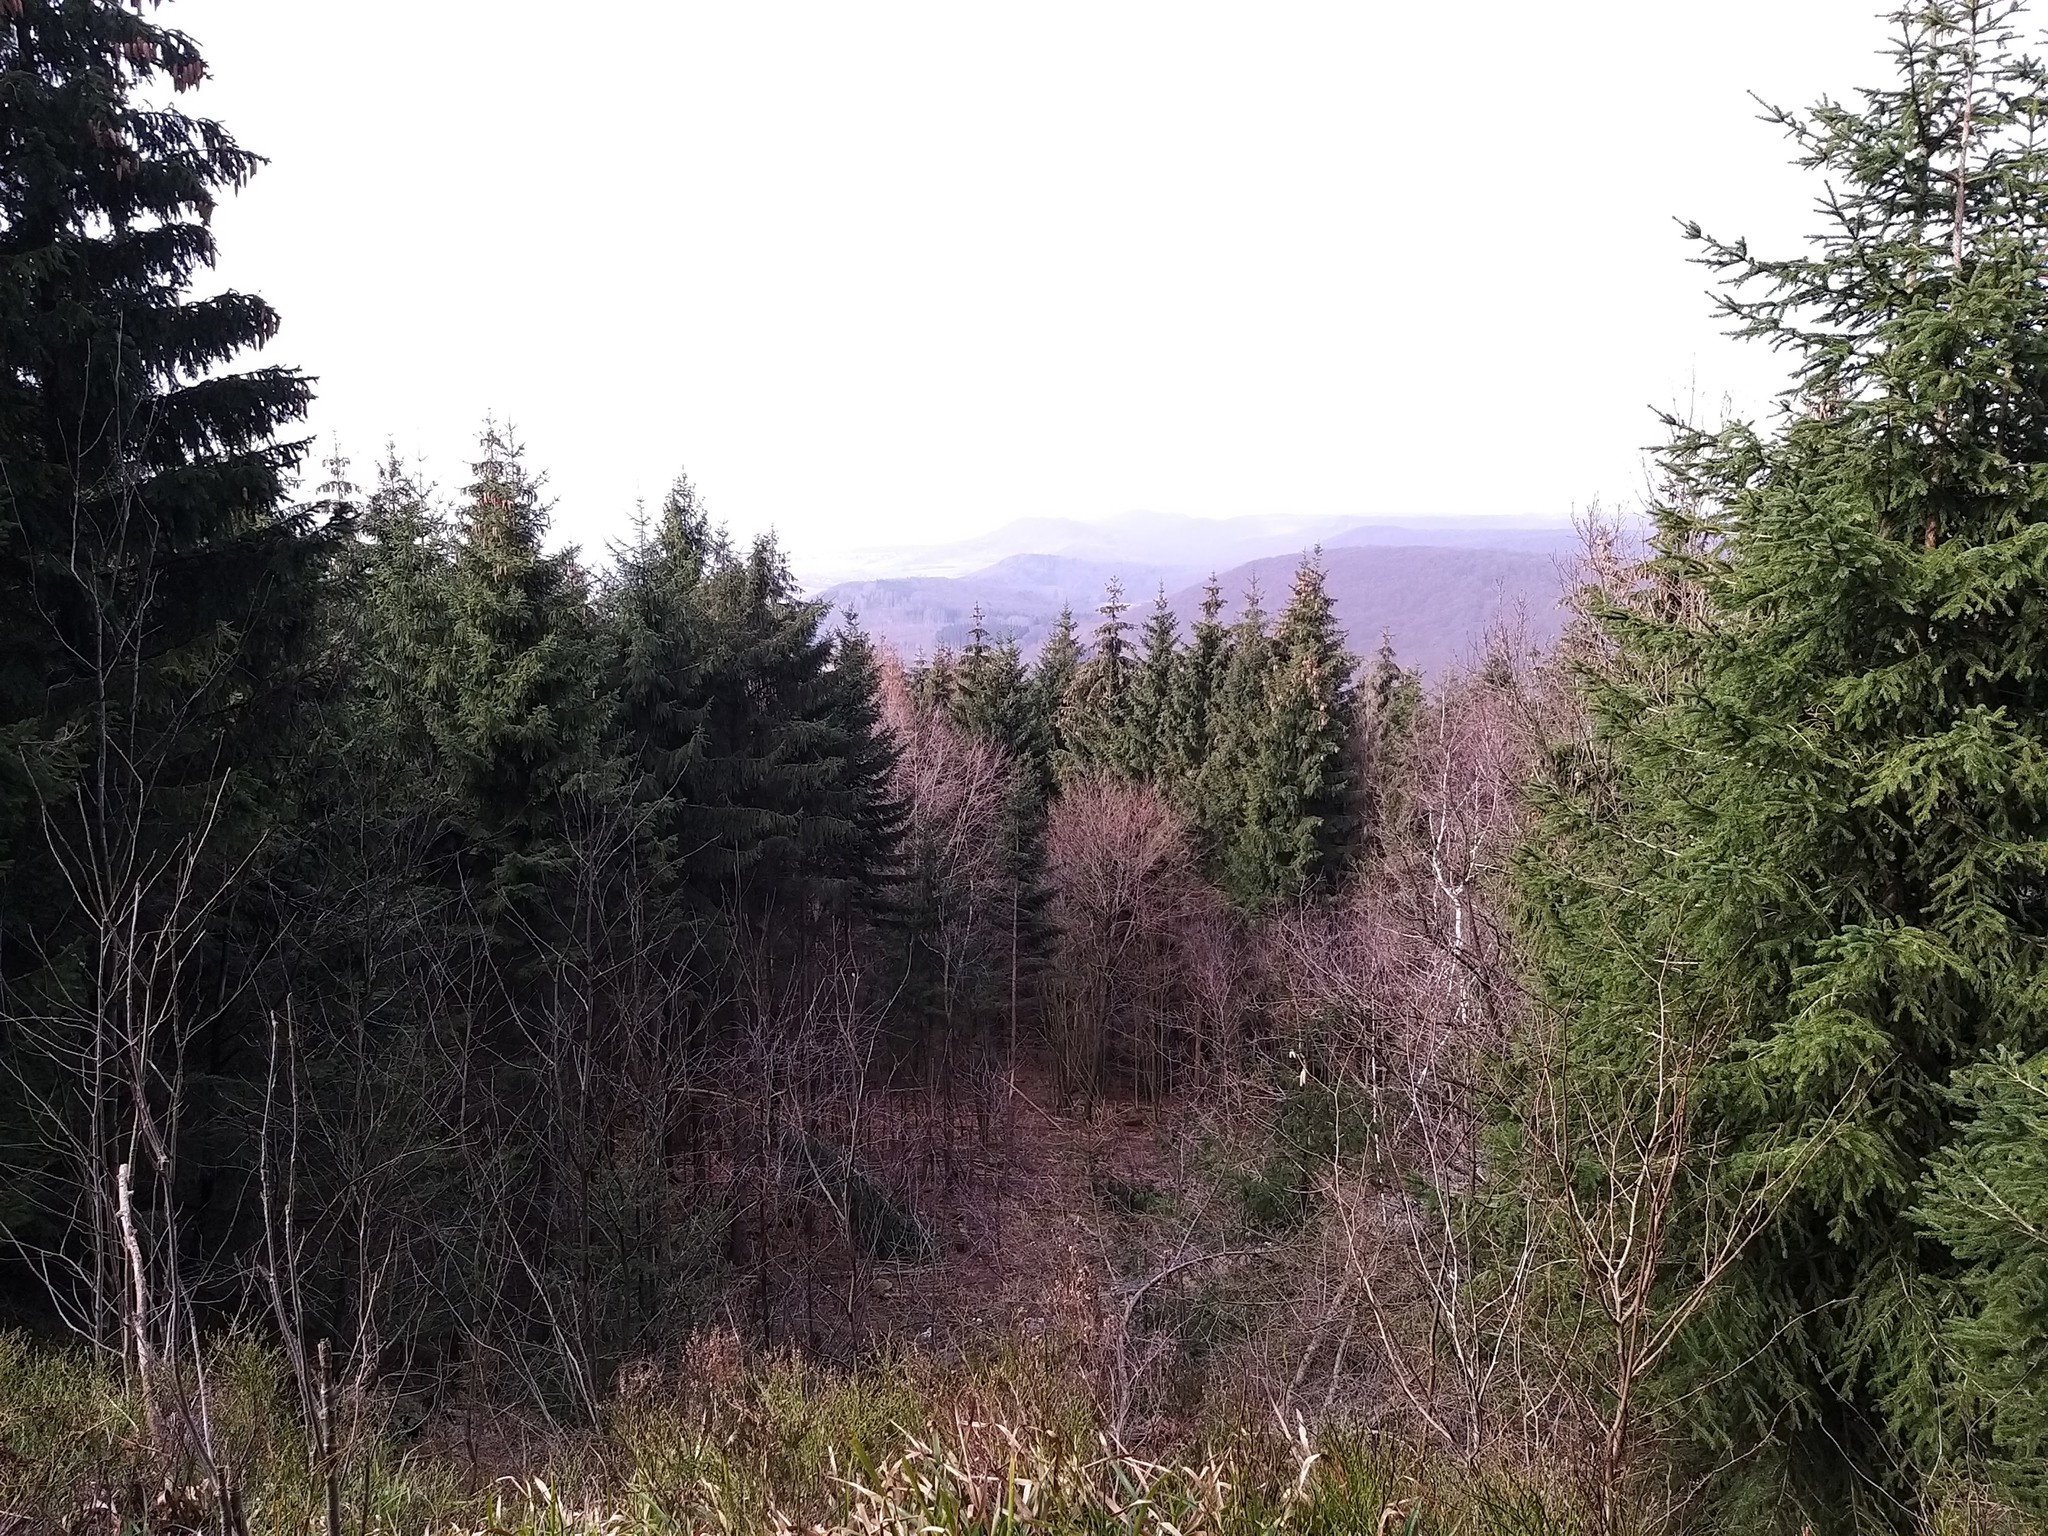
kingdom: Plantae
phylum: Tracheophyta
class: Pinopsida
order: Pinales
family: Pinaceae
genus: Picea
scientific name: Picea abies
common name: Norway spruce
